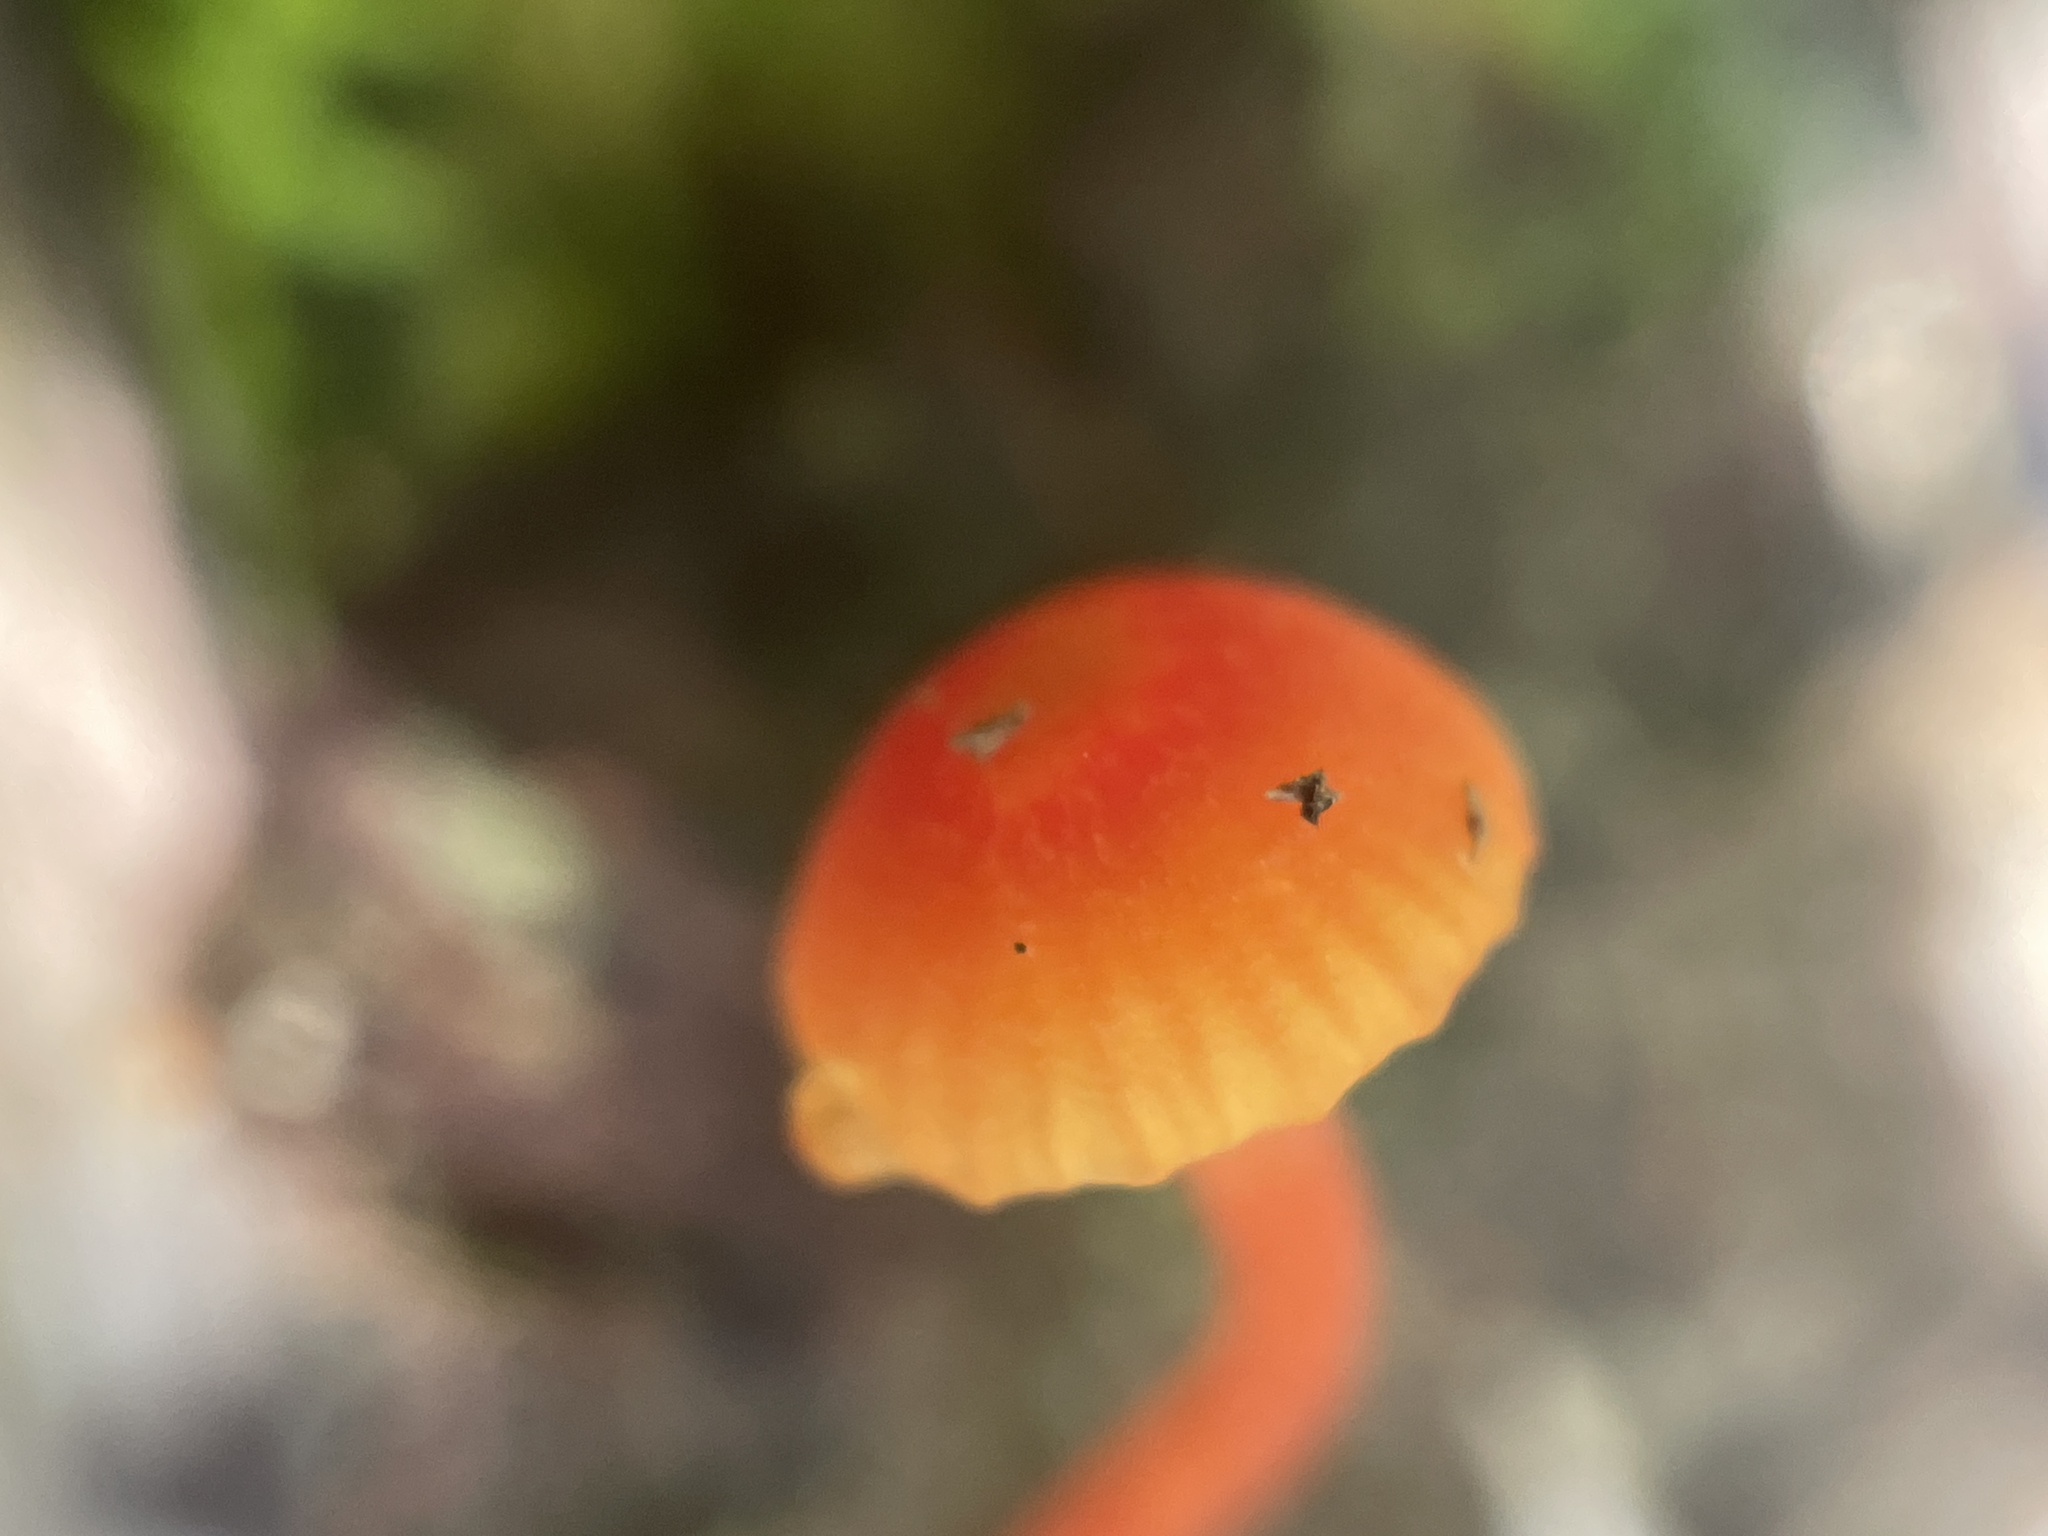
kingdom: Fungi
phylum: Basidiomycota
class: Agaricomycetes
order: Agaricales
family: Hygrophoraceae
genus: Hygrocybe
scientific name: Hygrocybe cantharellus
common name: Goblet waxcap
